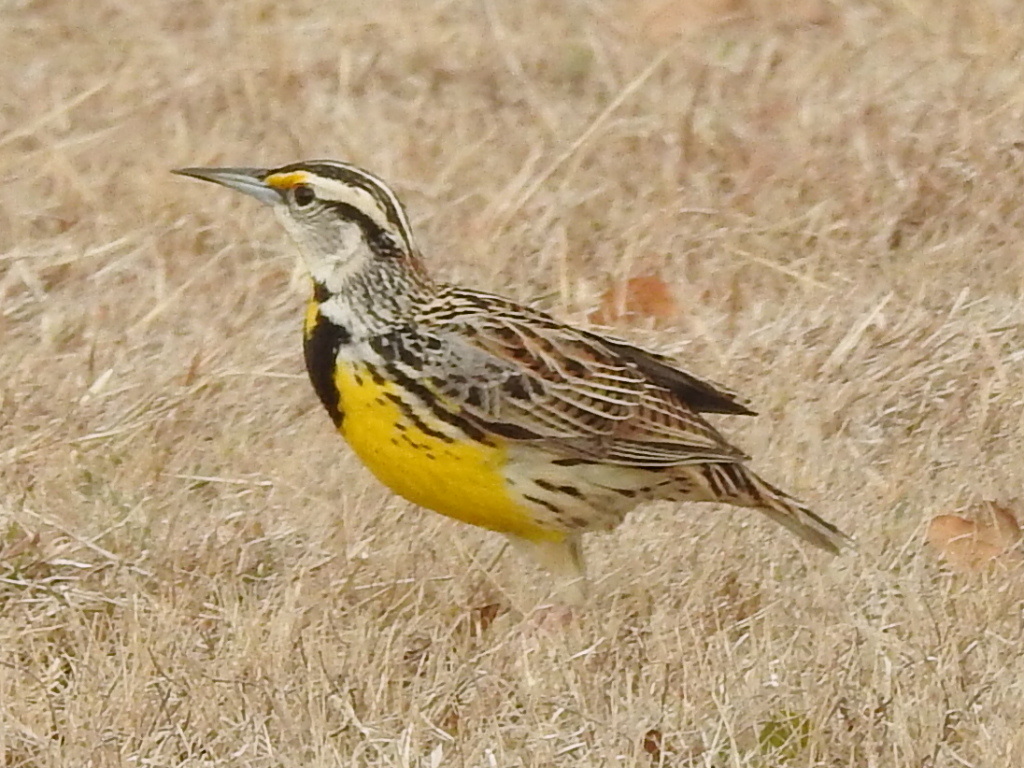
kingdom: Animalia
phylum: Chordata
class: Aves
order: Passeriformes
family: Icteridae
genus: Sturnella
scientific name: Sturnella magna
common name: Eastern meadowlark
